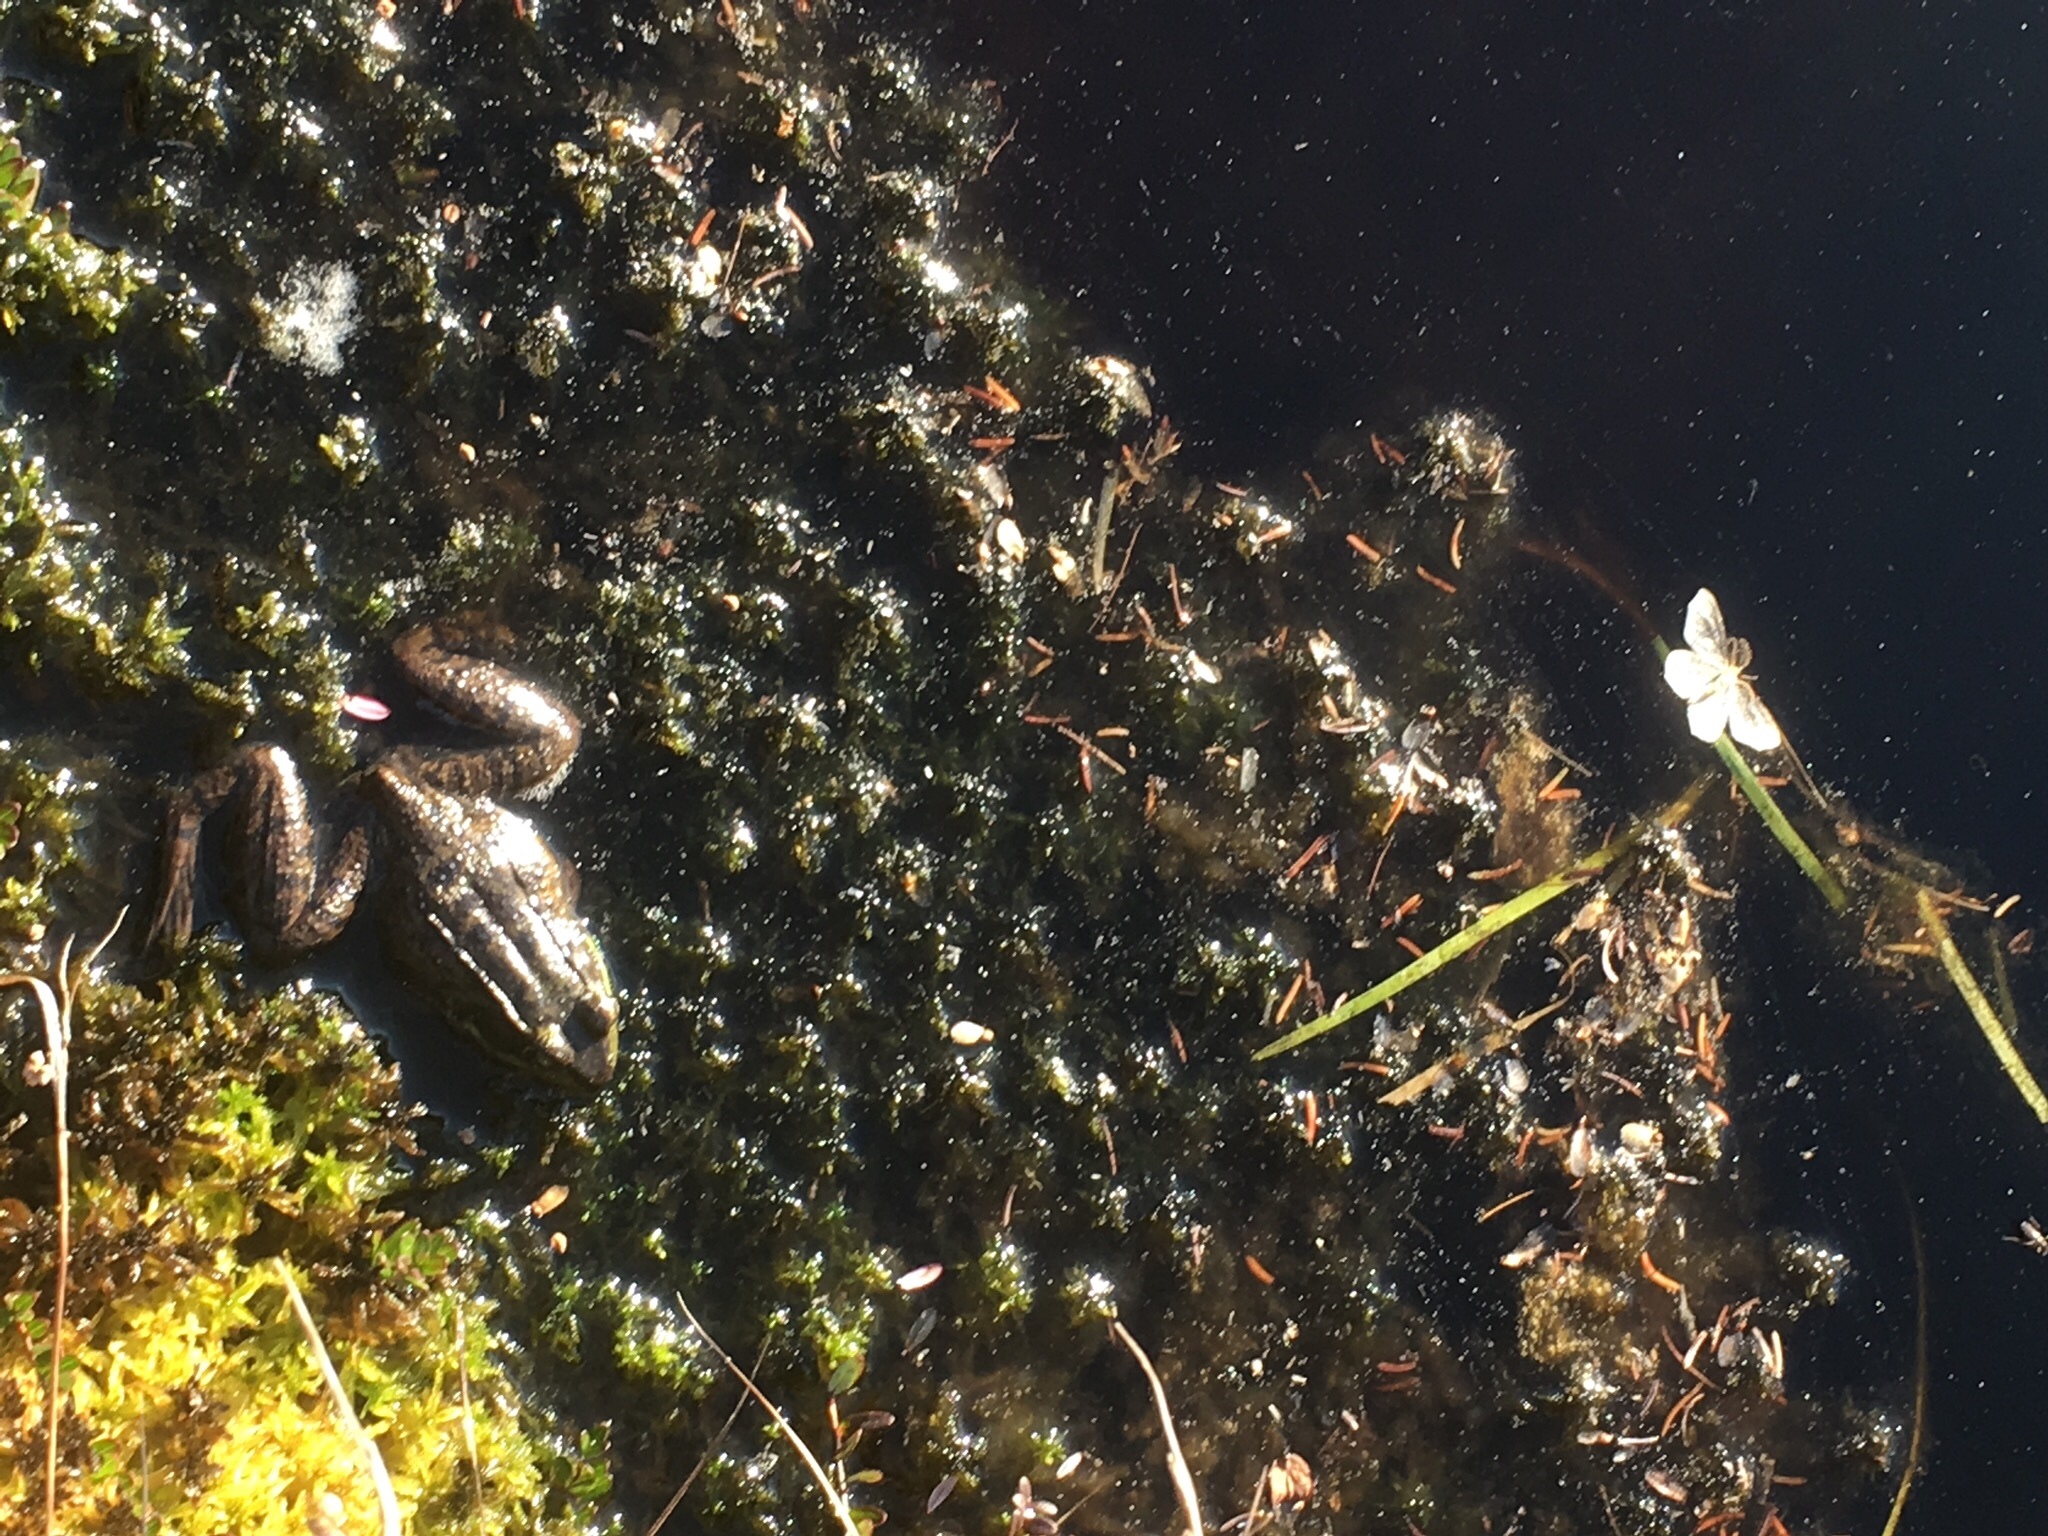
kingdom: Animalia
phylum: Chordata
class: Amphibia
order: Anura
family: Ranidae
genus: Lithobates
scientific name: Lithobates clamitans
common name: Green frog
